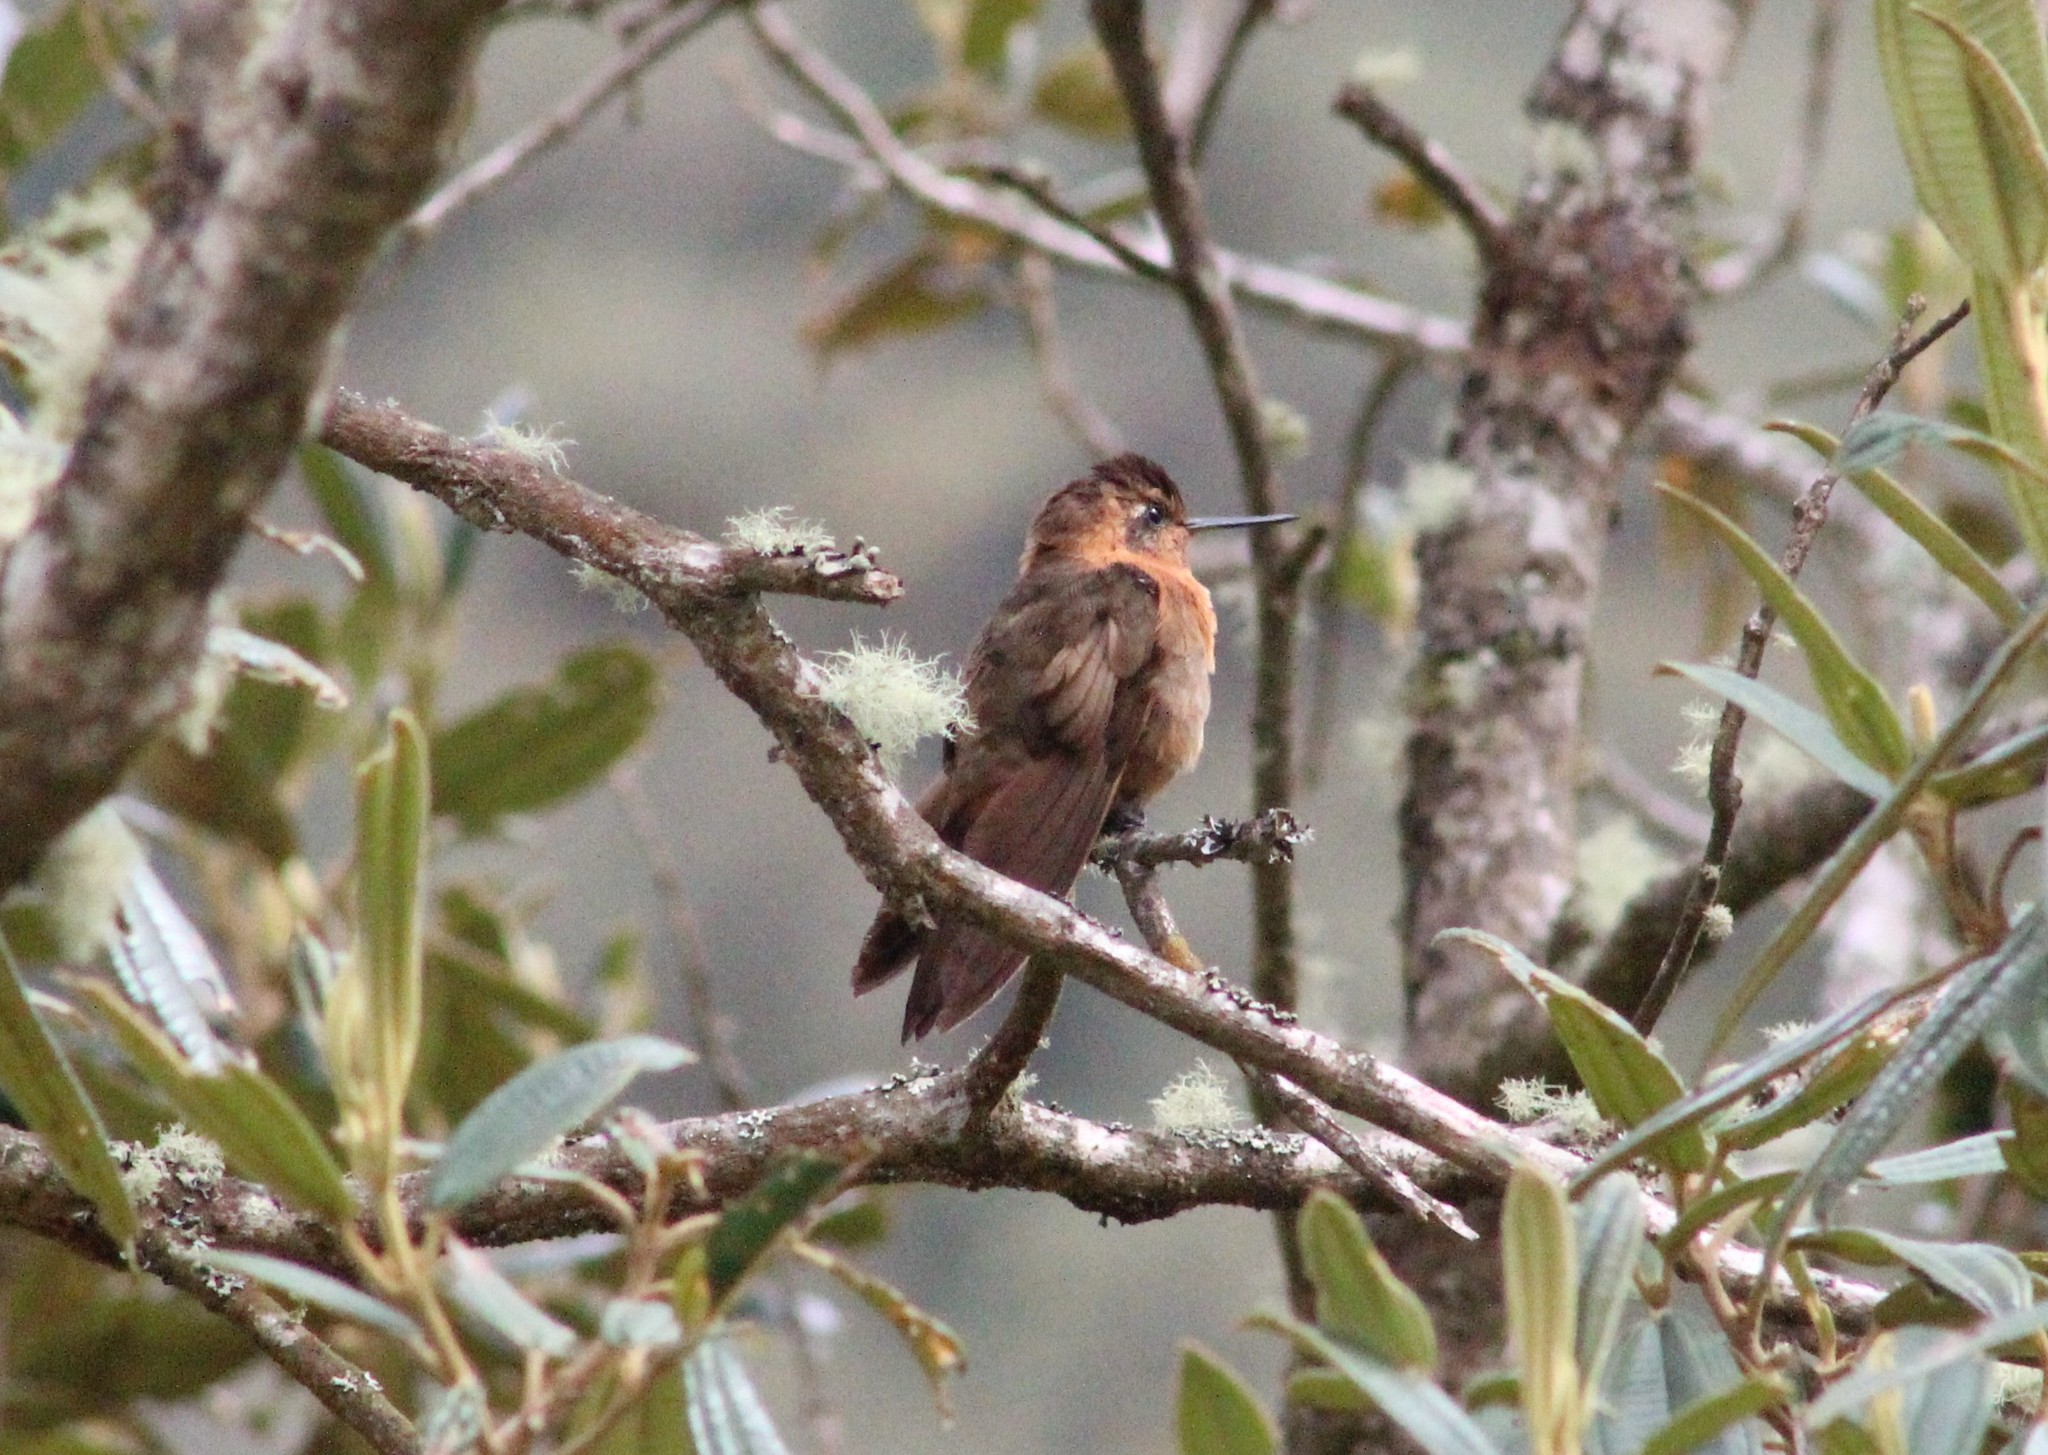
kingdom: Animalia
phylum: Chordata
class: Aves
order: Apodiformes
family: Trochilidae
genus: Aglaeactis
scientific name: Aglaeactis cupripennis
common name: Shining sunbeam
